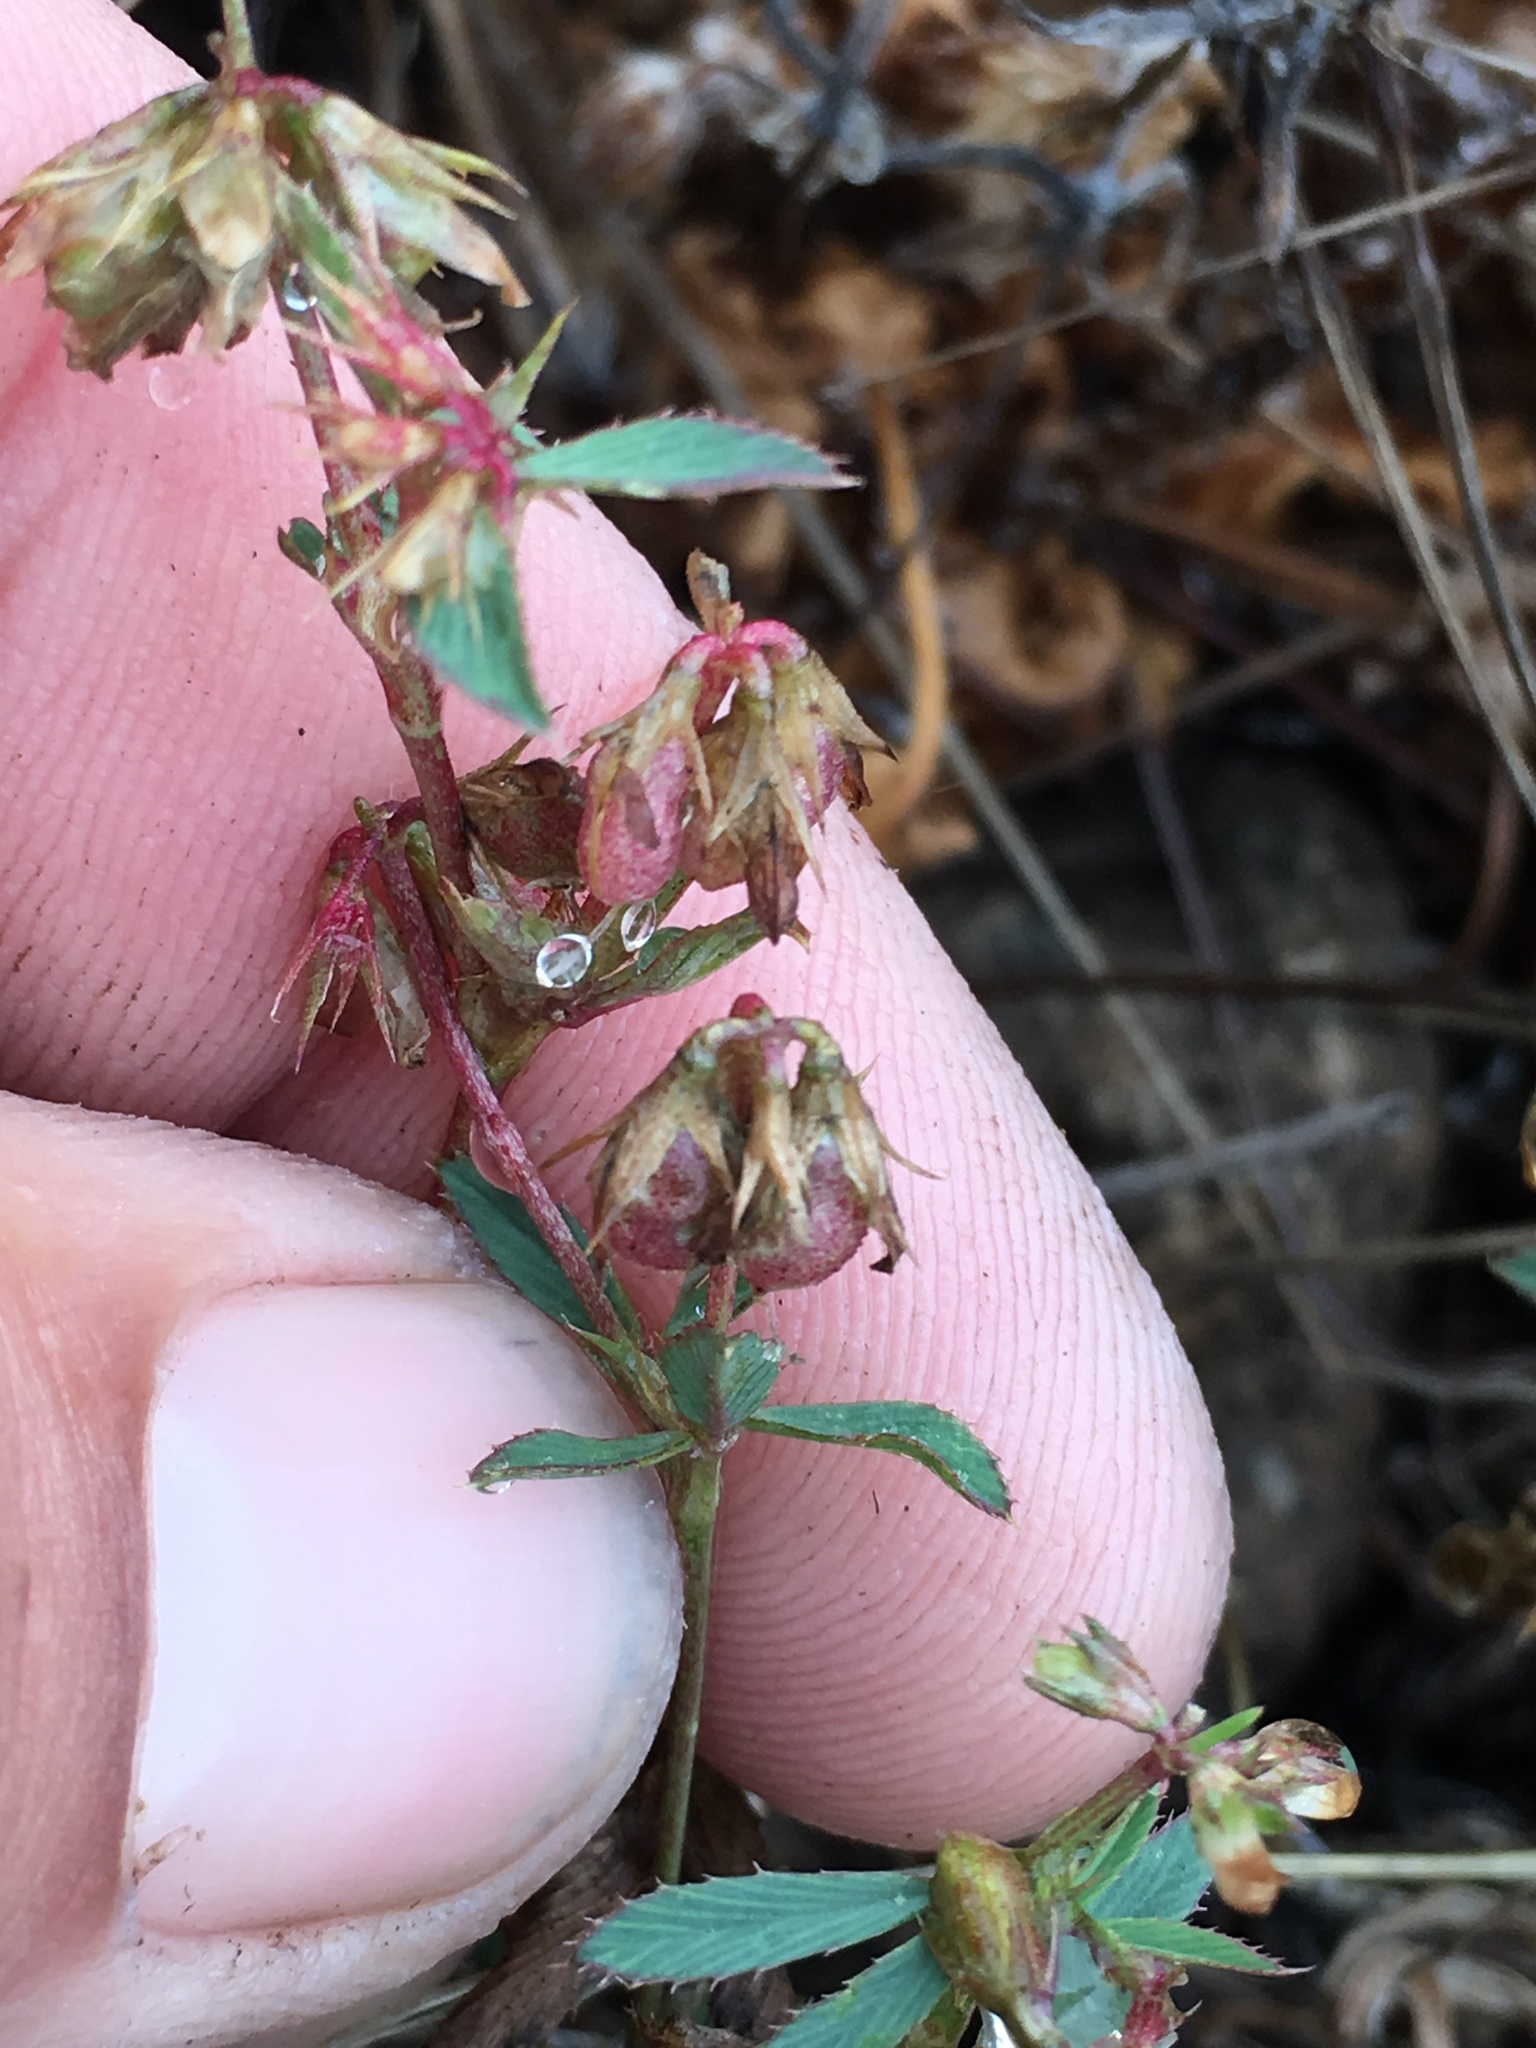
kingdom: Plantae
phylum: Tracheophyta
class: Magnoliopsida
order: Fabales
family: Fabaceae
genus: Trifolium
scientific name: Trifolium gracilentum
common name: Slender clover
